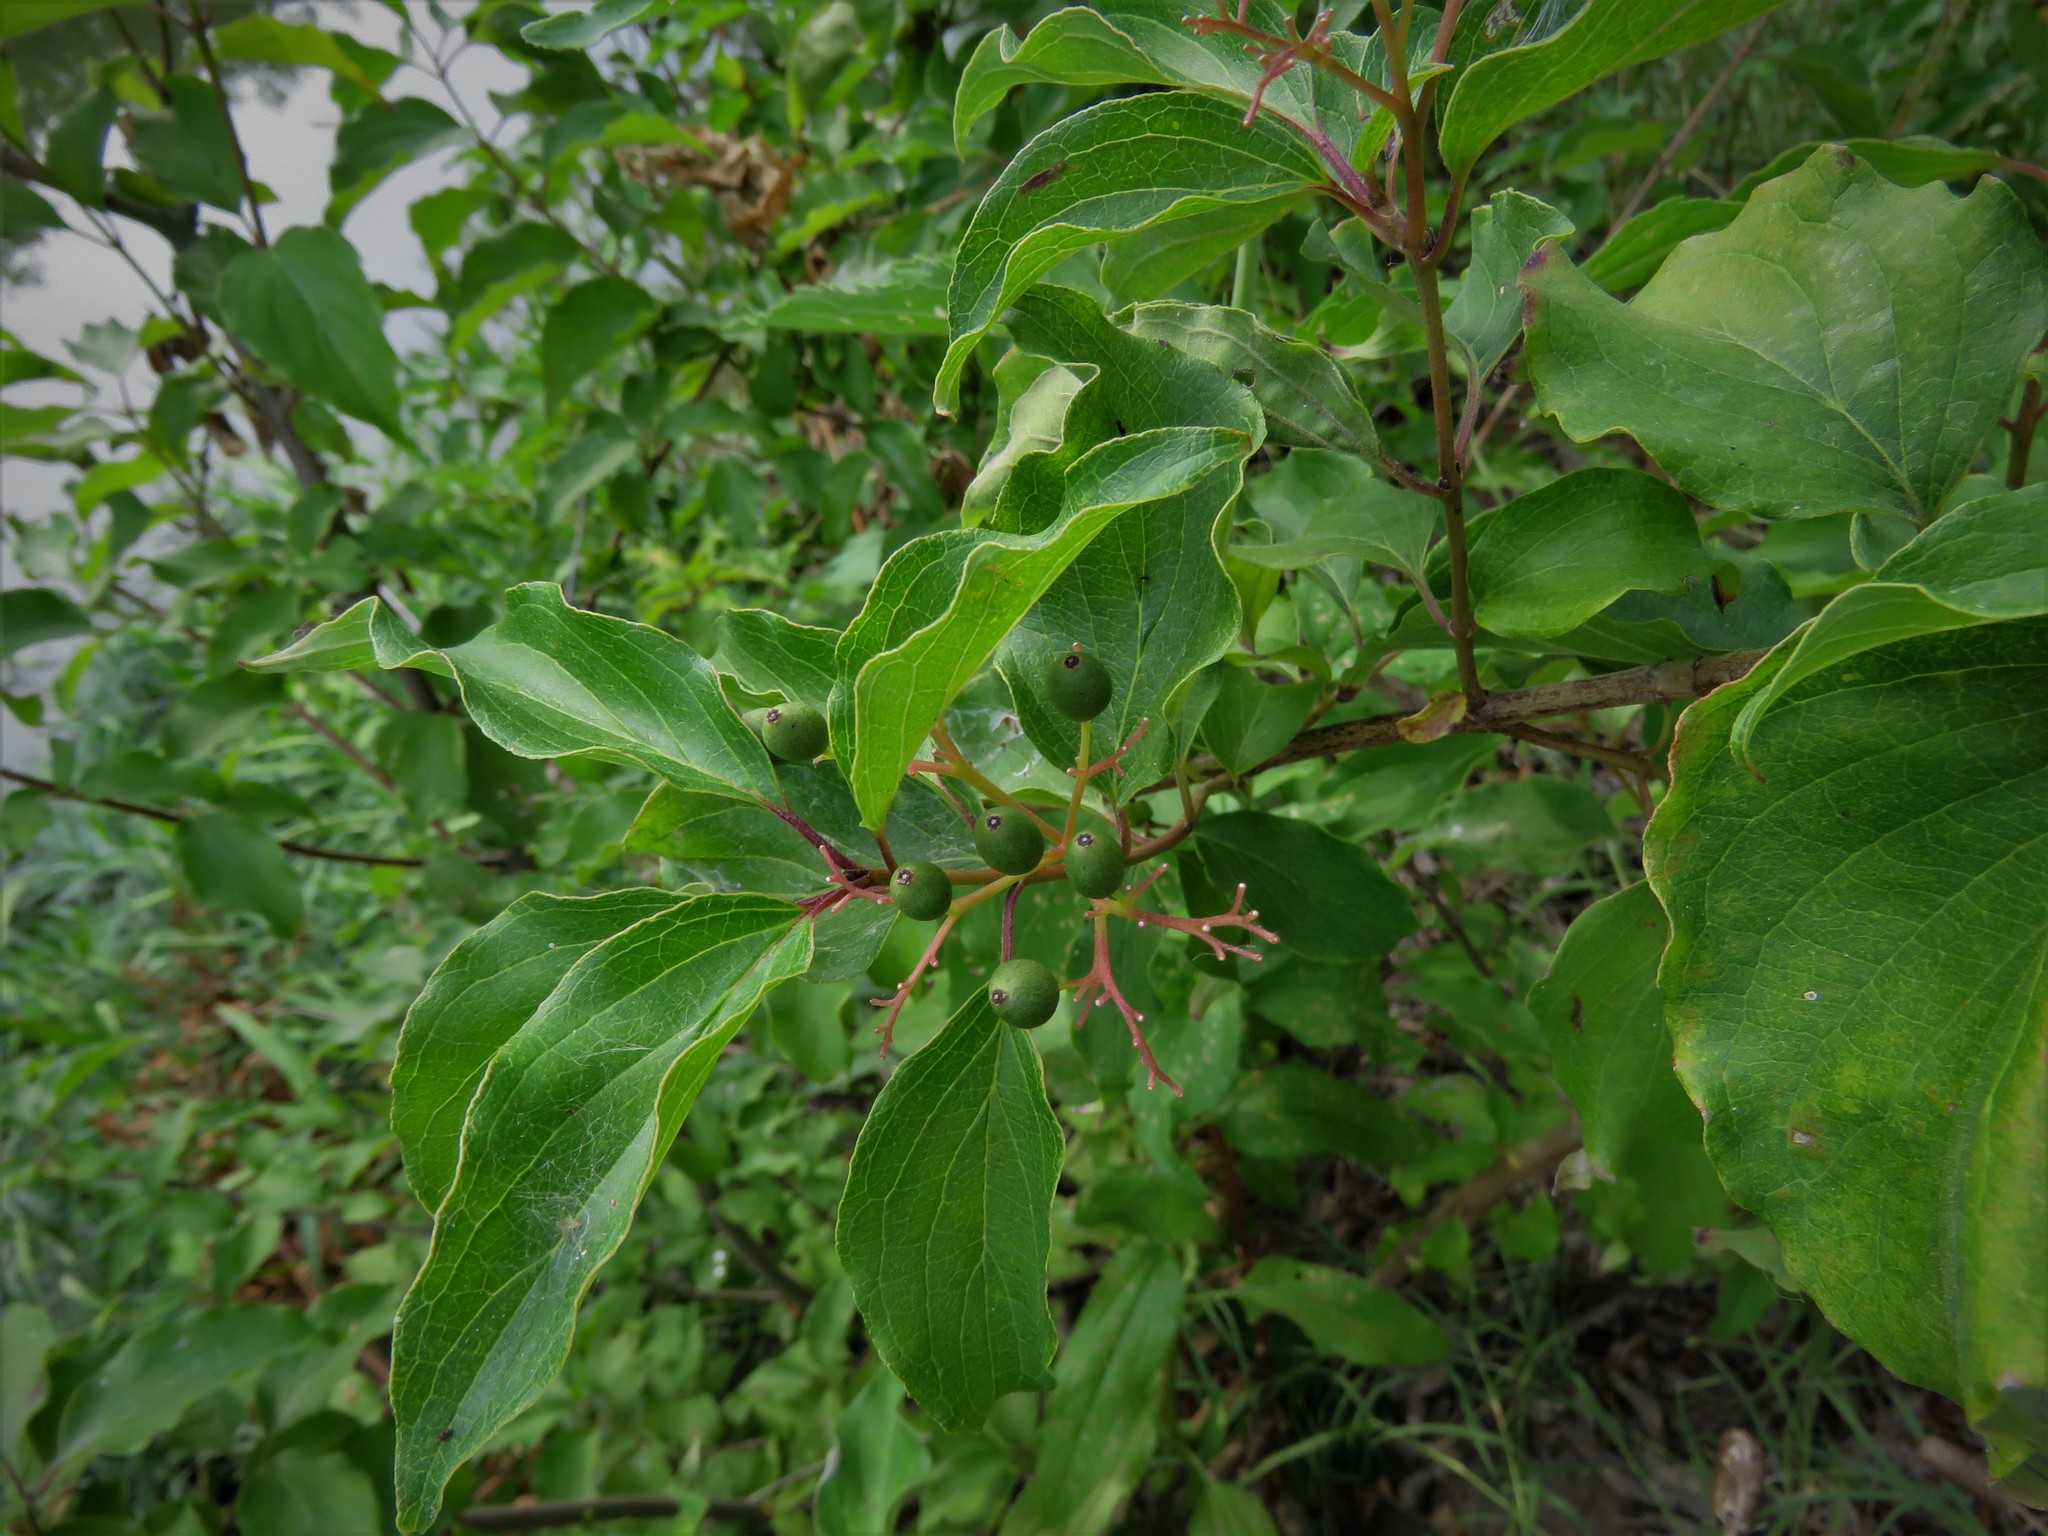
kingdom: Plantae
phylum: Tracheophyta
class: Magnoliopsida
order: Cornales
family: Cornaceae
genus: Cornus
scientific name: Cornus drummondii
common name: Rough-leaf dogwood
